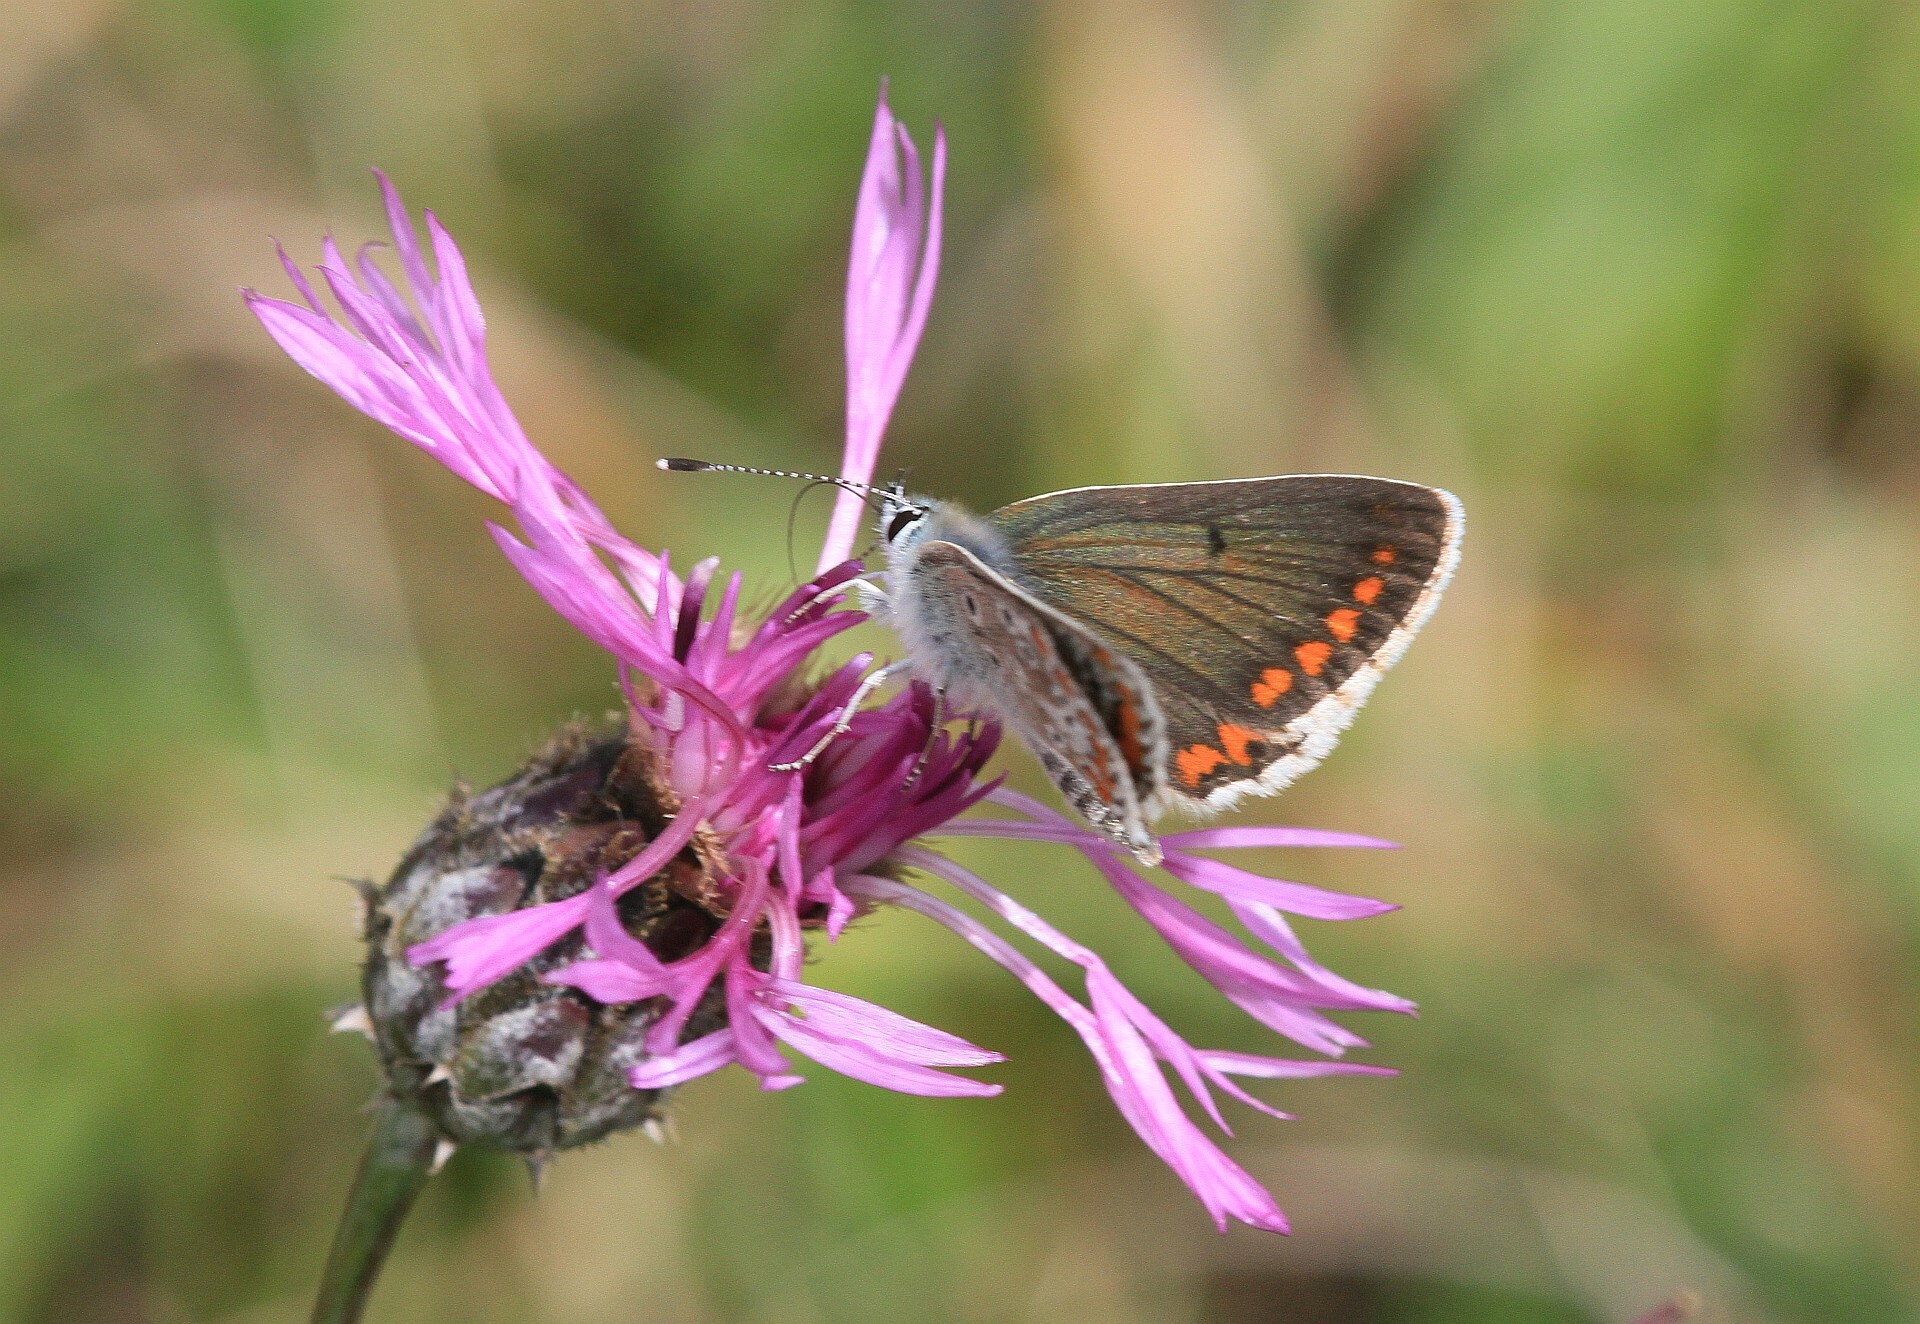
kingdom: Animalia
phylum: Arthropoda
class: Insecta
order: Lepidoptera
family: Lycaenidae
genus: Aricia
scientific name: Aricia agestis
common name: Brown argus
